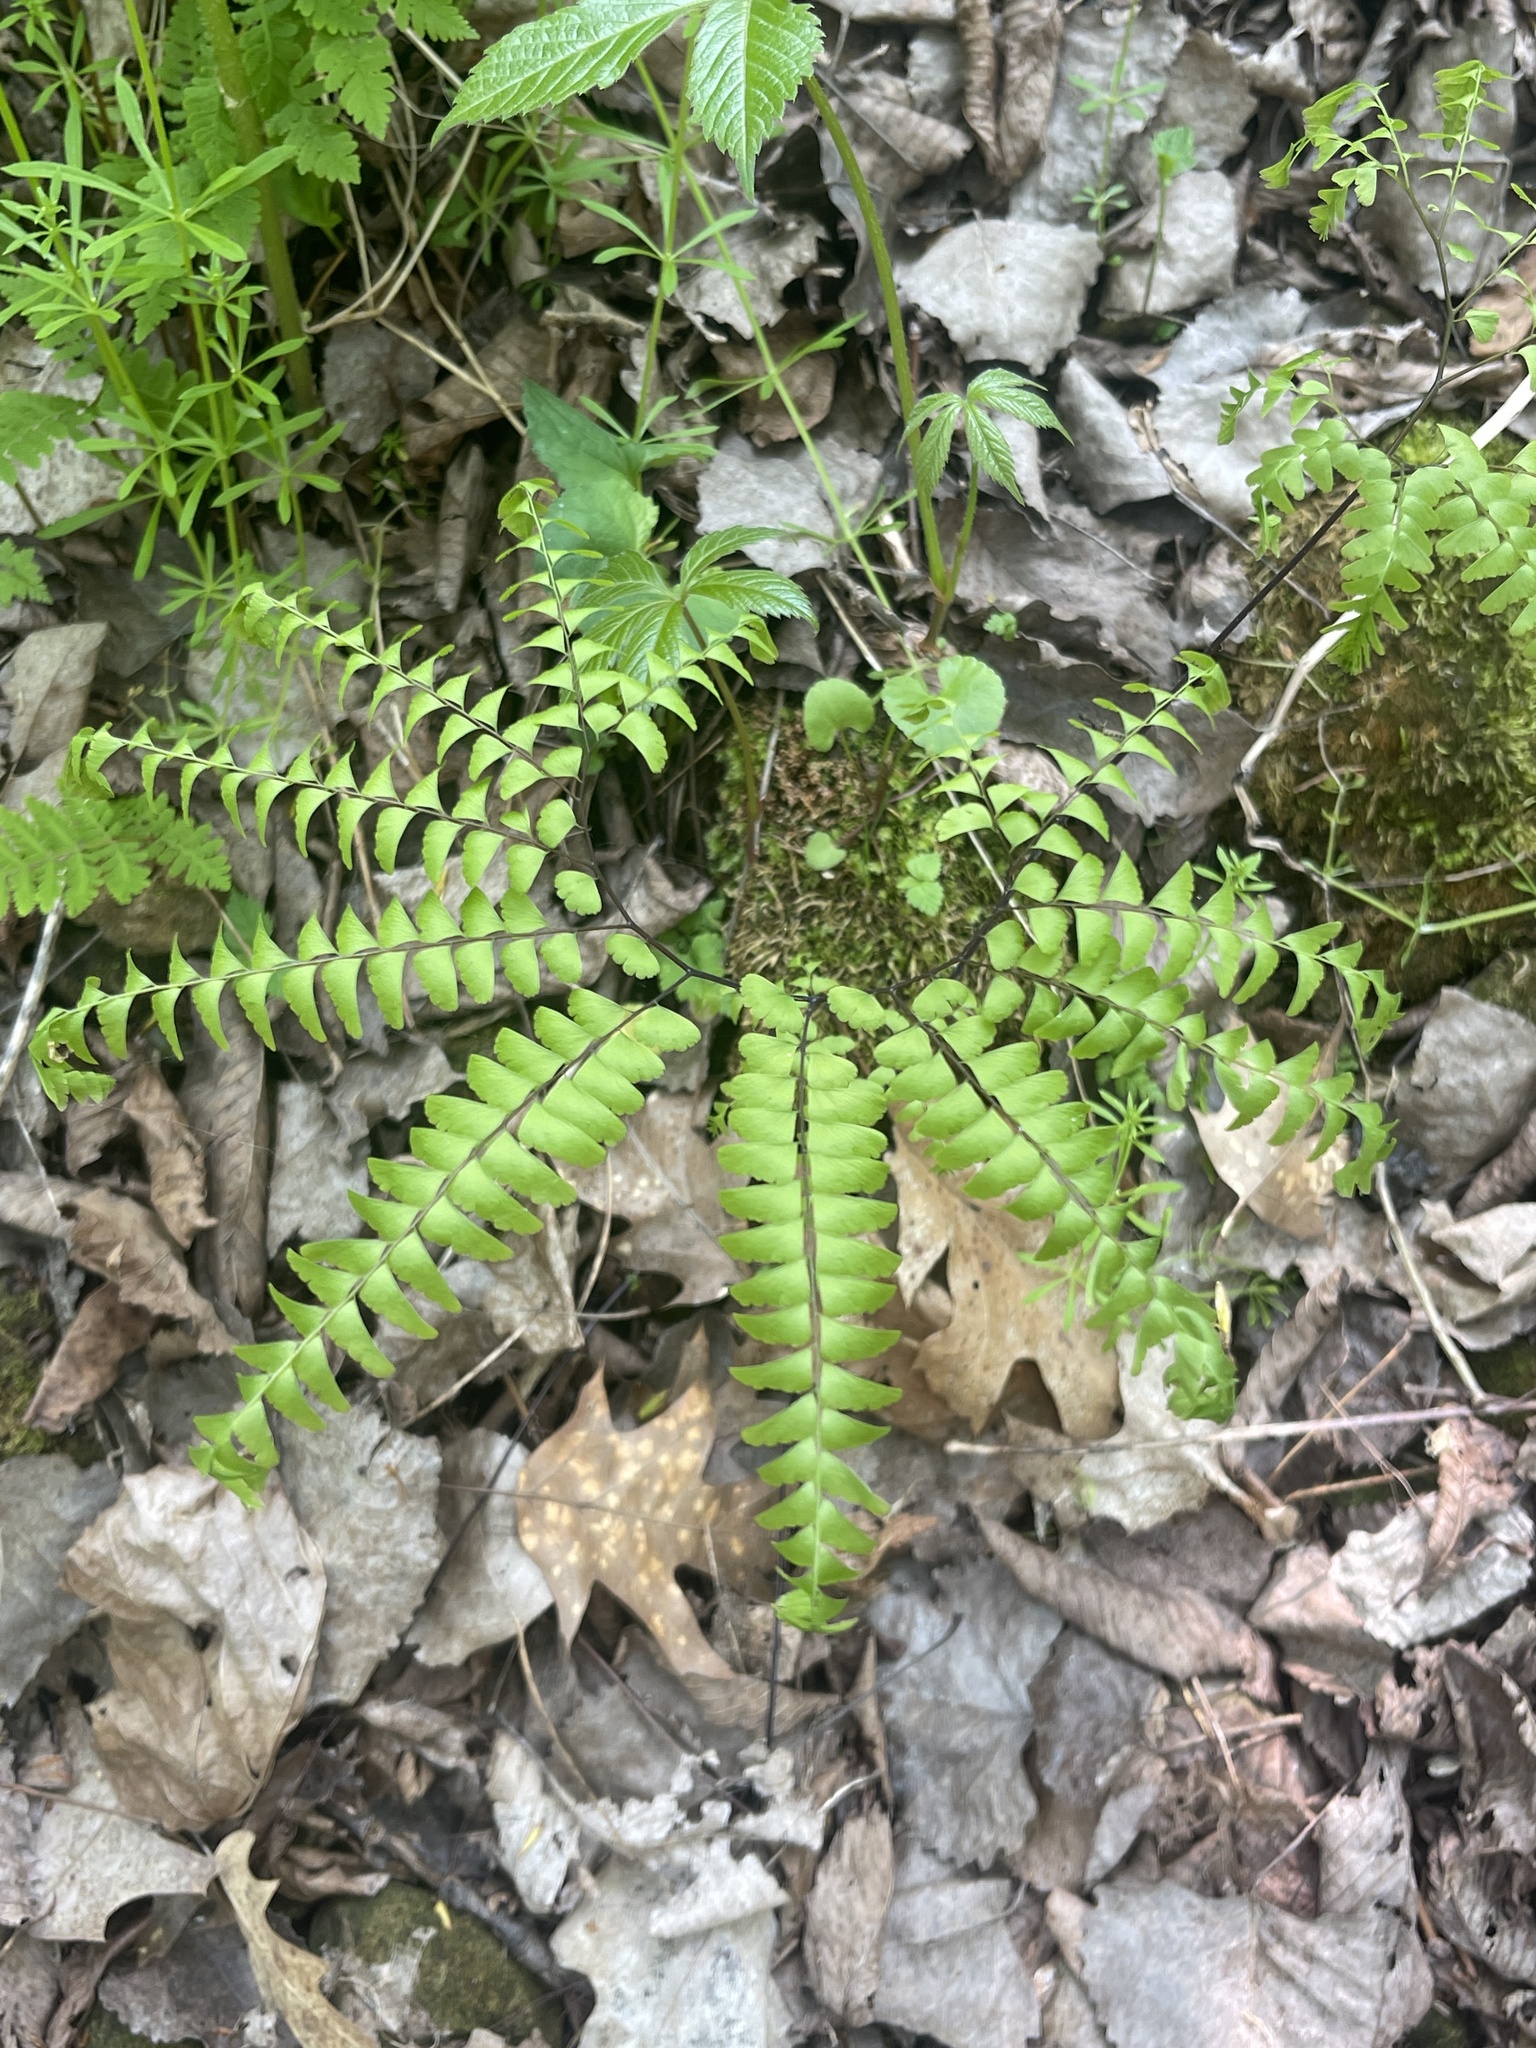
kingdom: Plantae
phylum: Tracheophyta
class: Polypodiopsida
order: Polypodiales
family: Pteridaceae
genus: Adiantum
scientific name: Adiantum pedatum
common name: Five-finger fern
